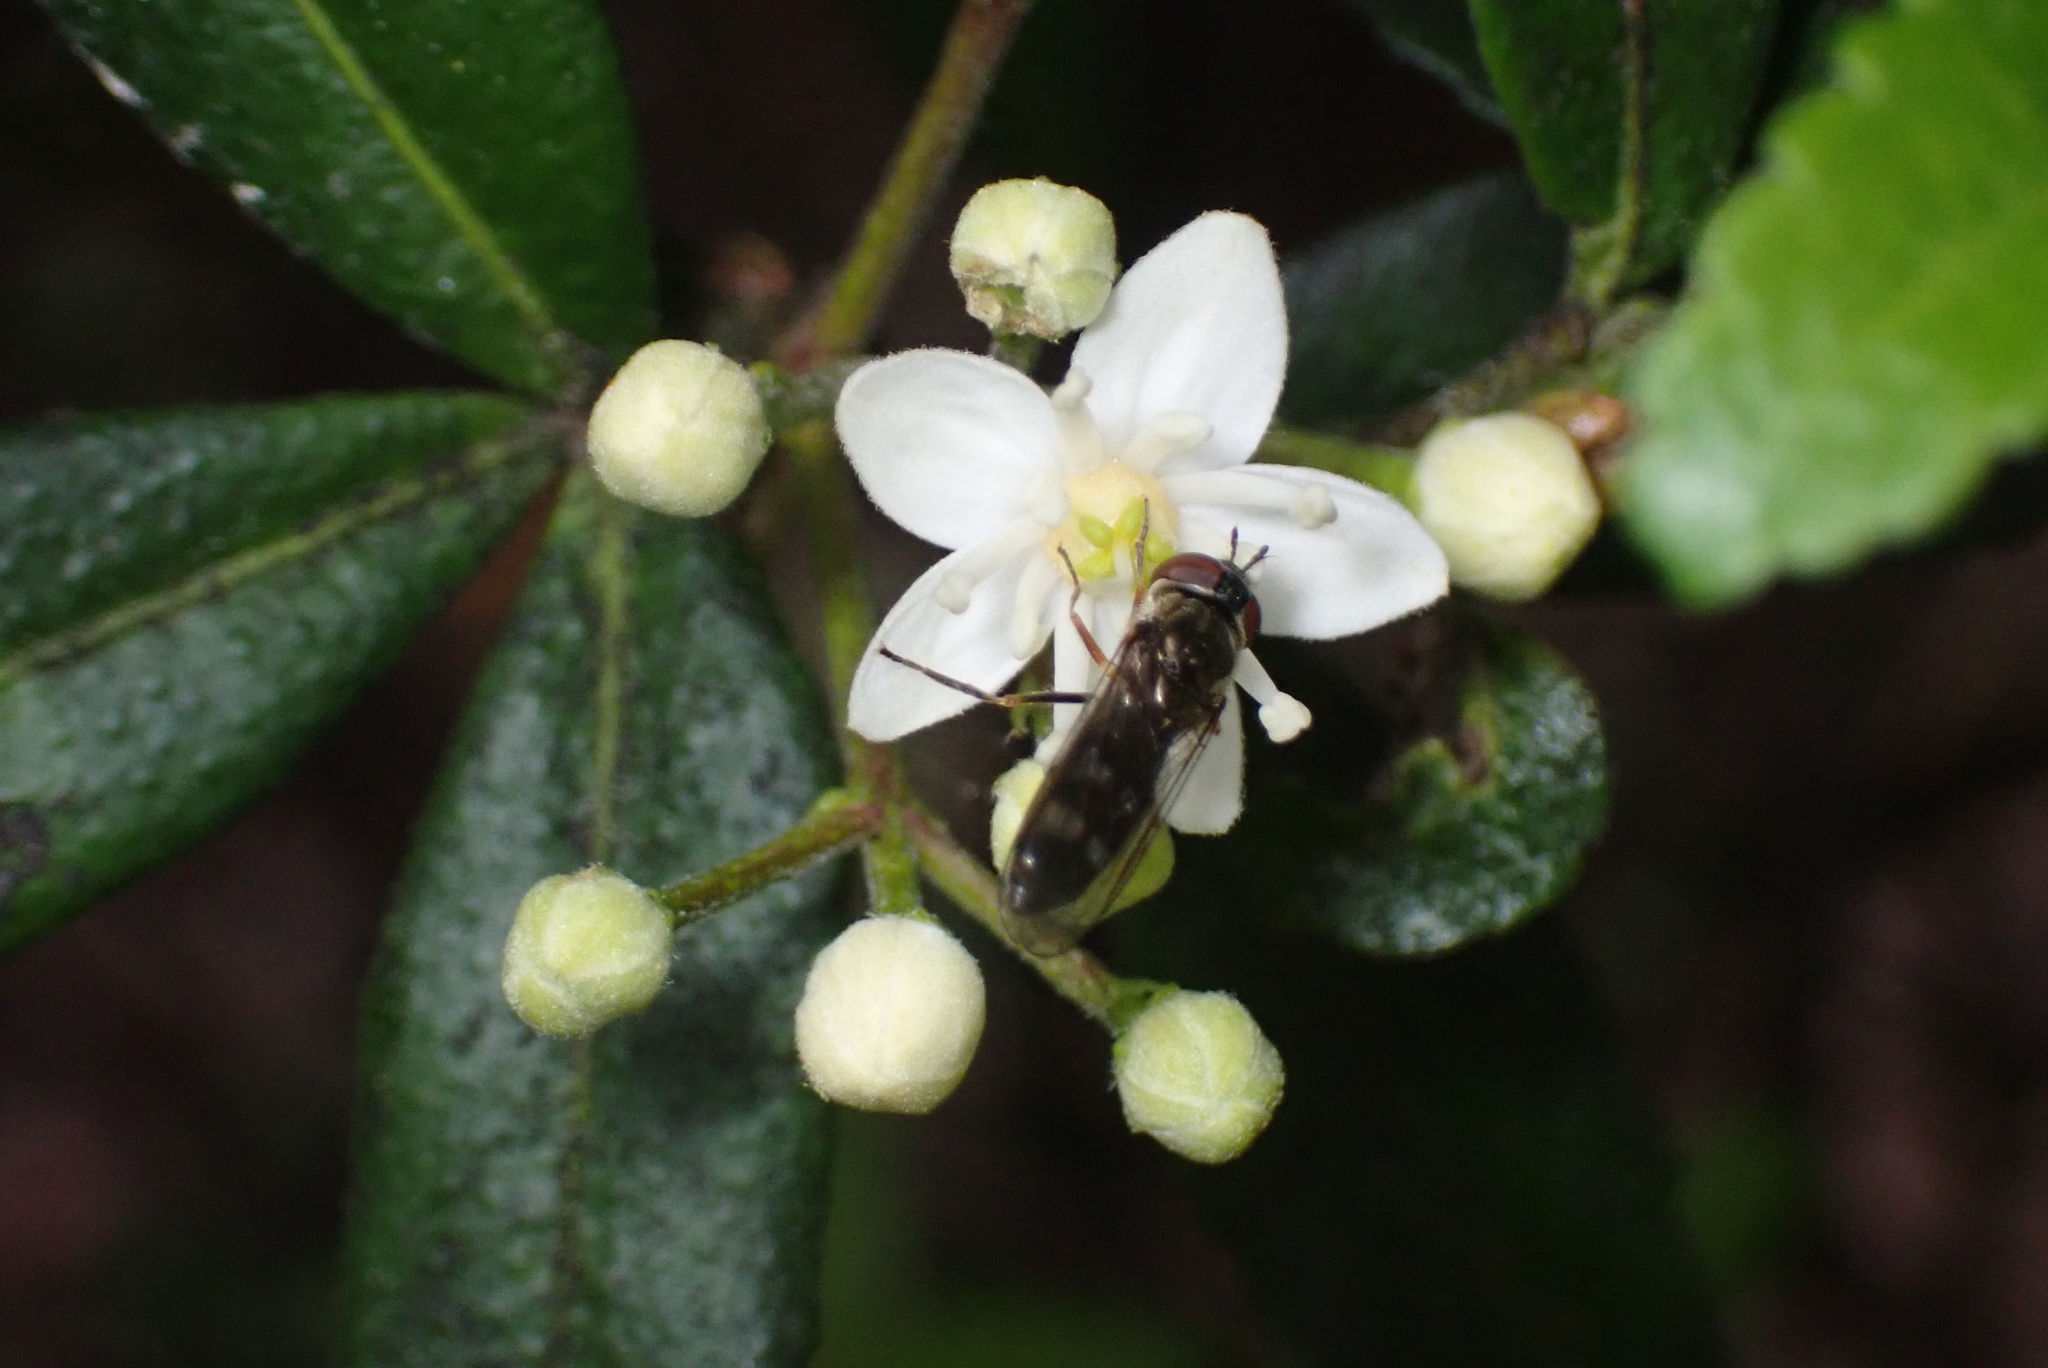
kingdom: Animalia
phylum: Arthropoda
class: Insecta
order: Diptera
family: Syrphidae
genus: Platycheirus
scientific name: Platycheirus albimanus
